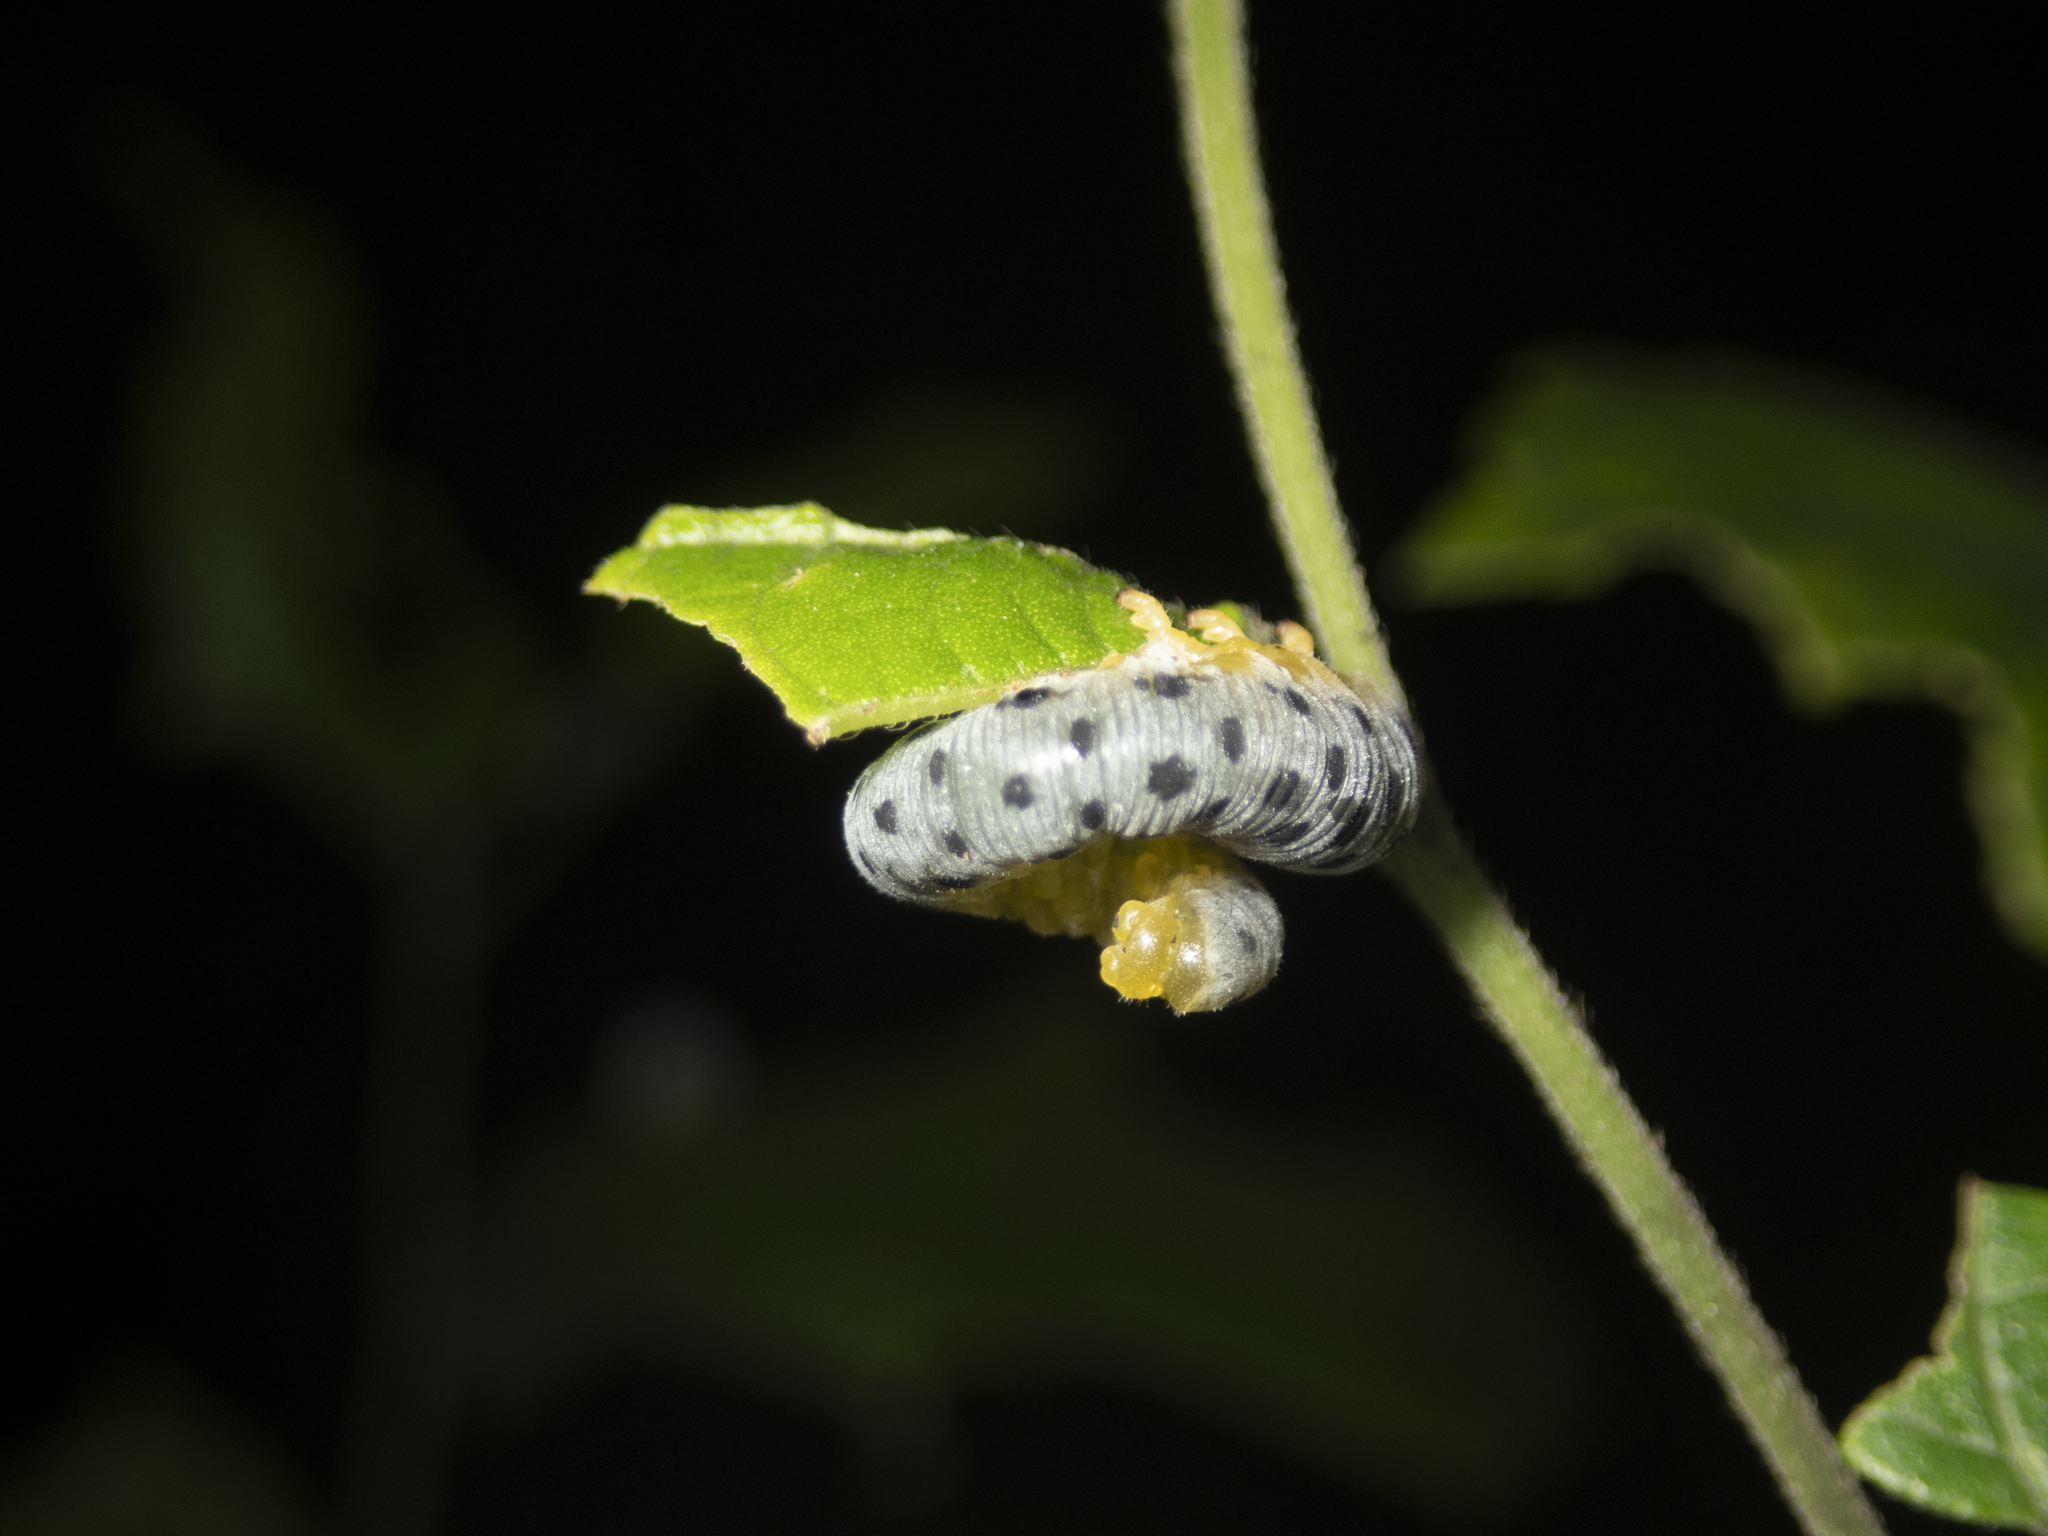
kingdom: Animalia
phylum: Arthropoda
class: Insecta
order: Hymenoptera
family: Cimbicidae
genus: Agenocimbex
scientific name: Agenocimbex
